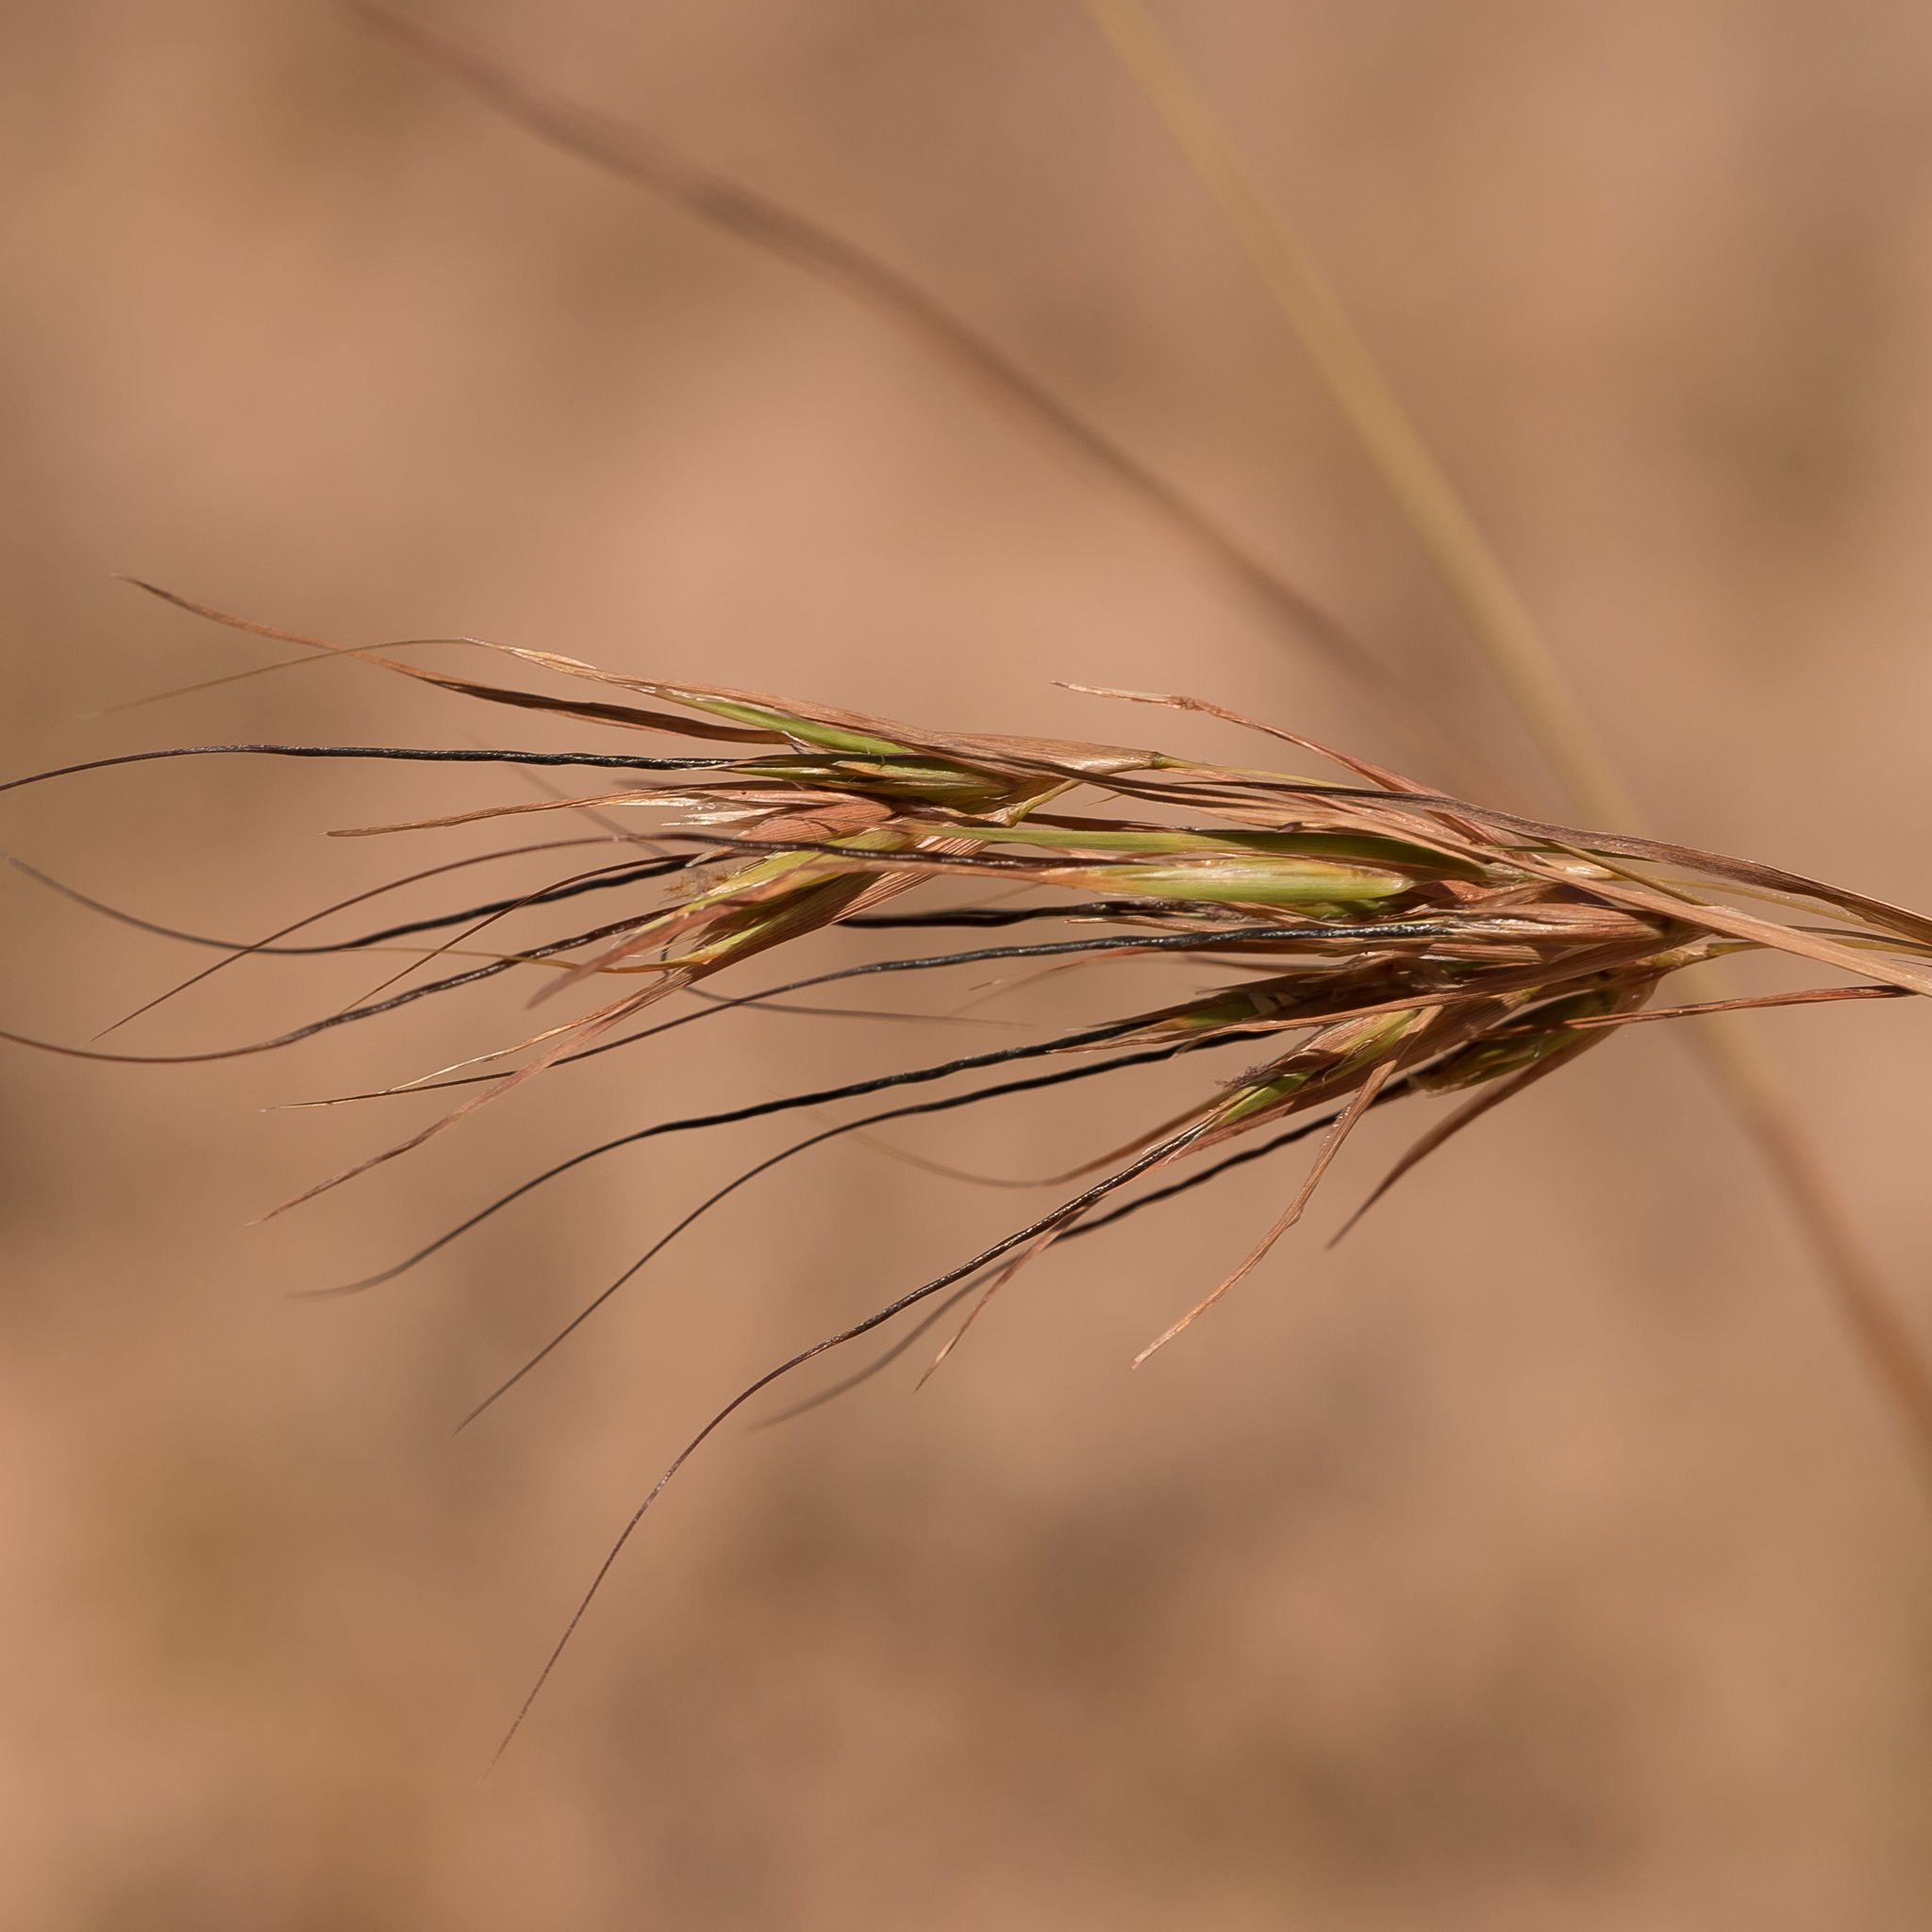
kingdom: Plantae
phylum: Tracheophyta
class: Liliopsida
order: Poales
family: Poaceae
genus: Themeda
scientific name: Themeda triandra
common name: Kangaroo grass
